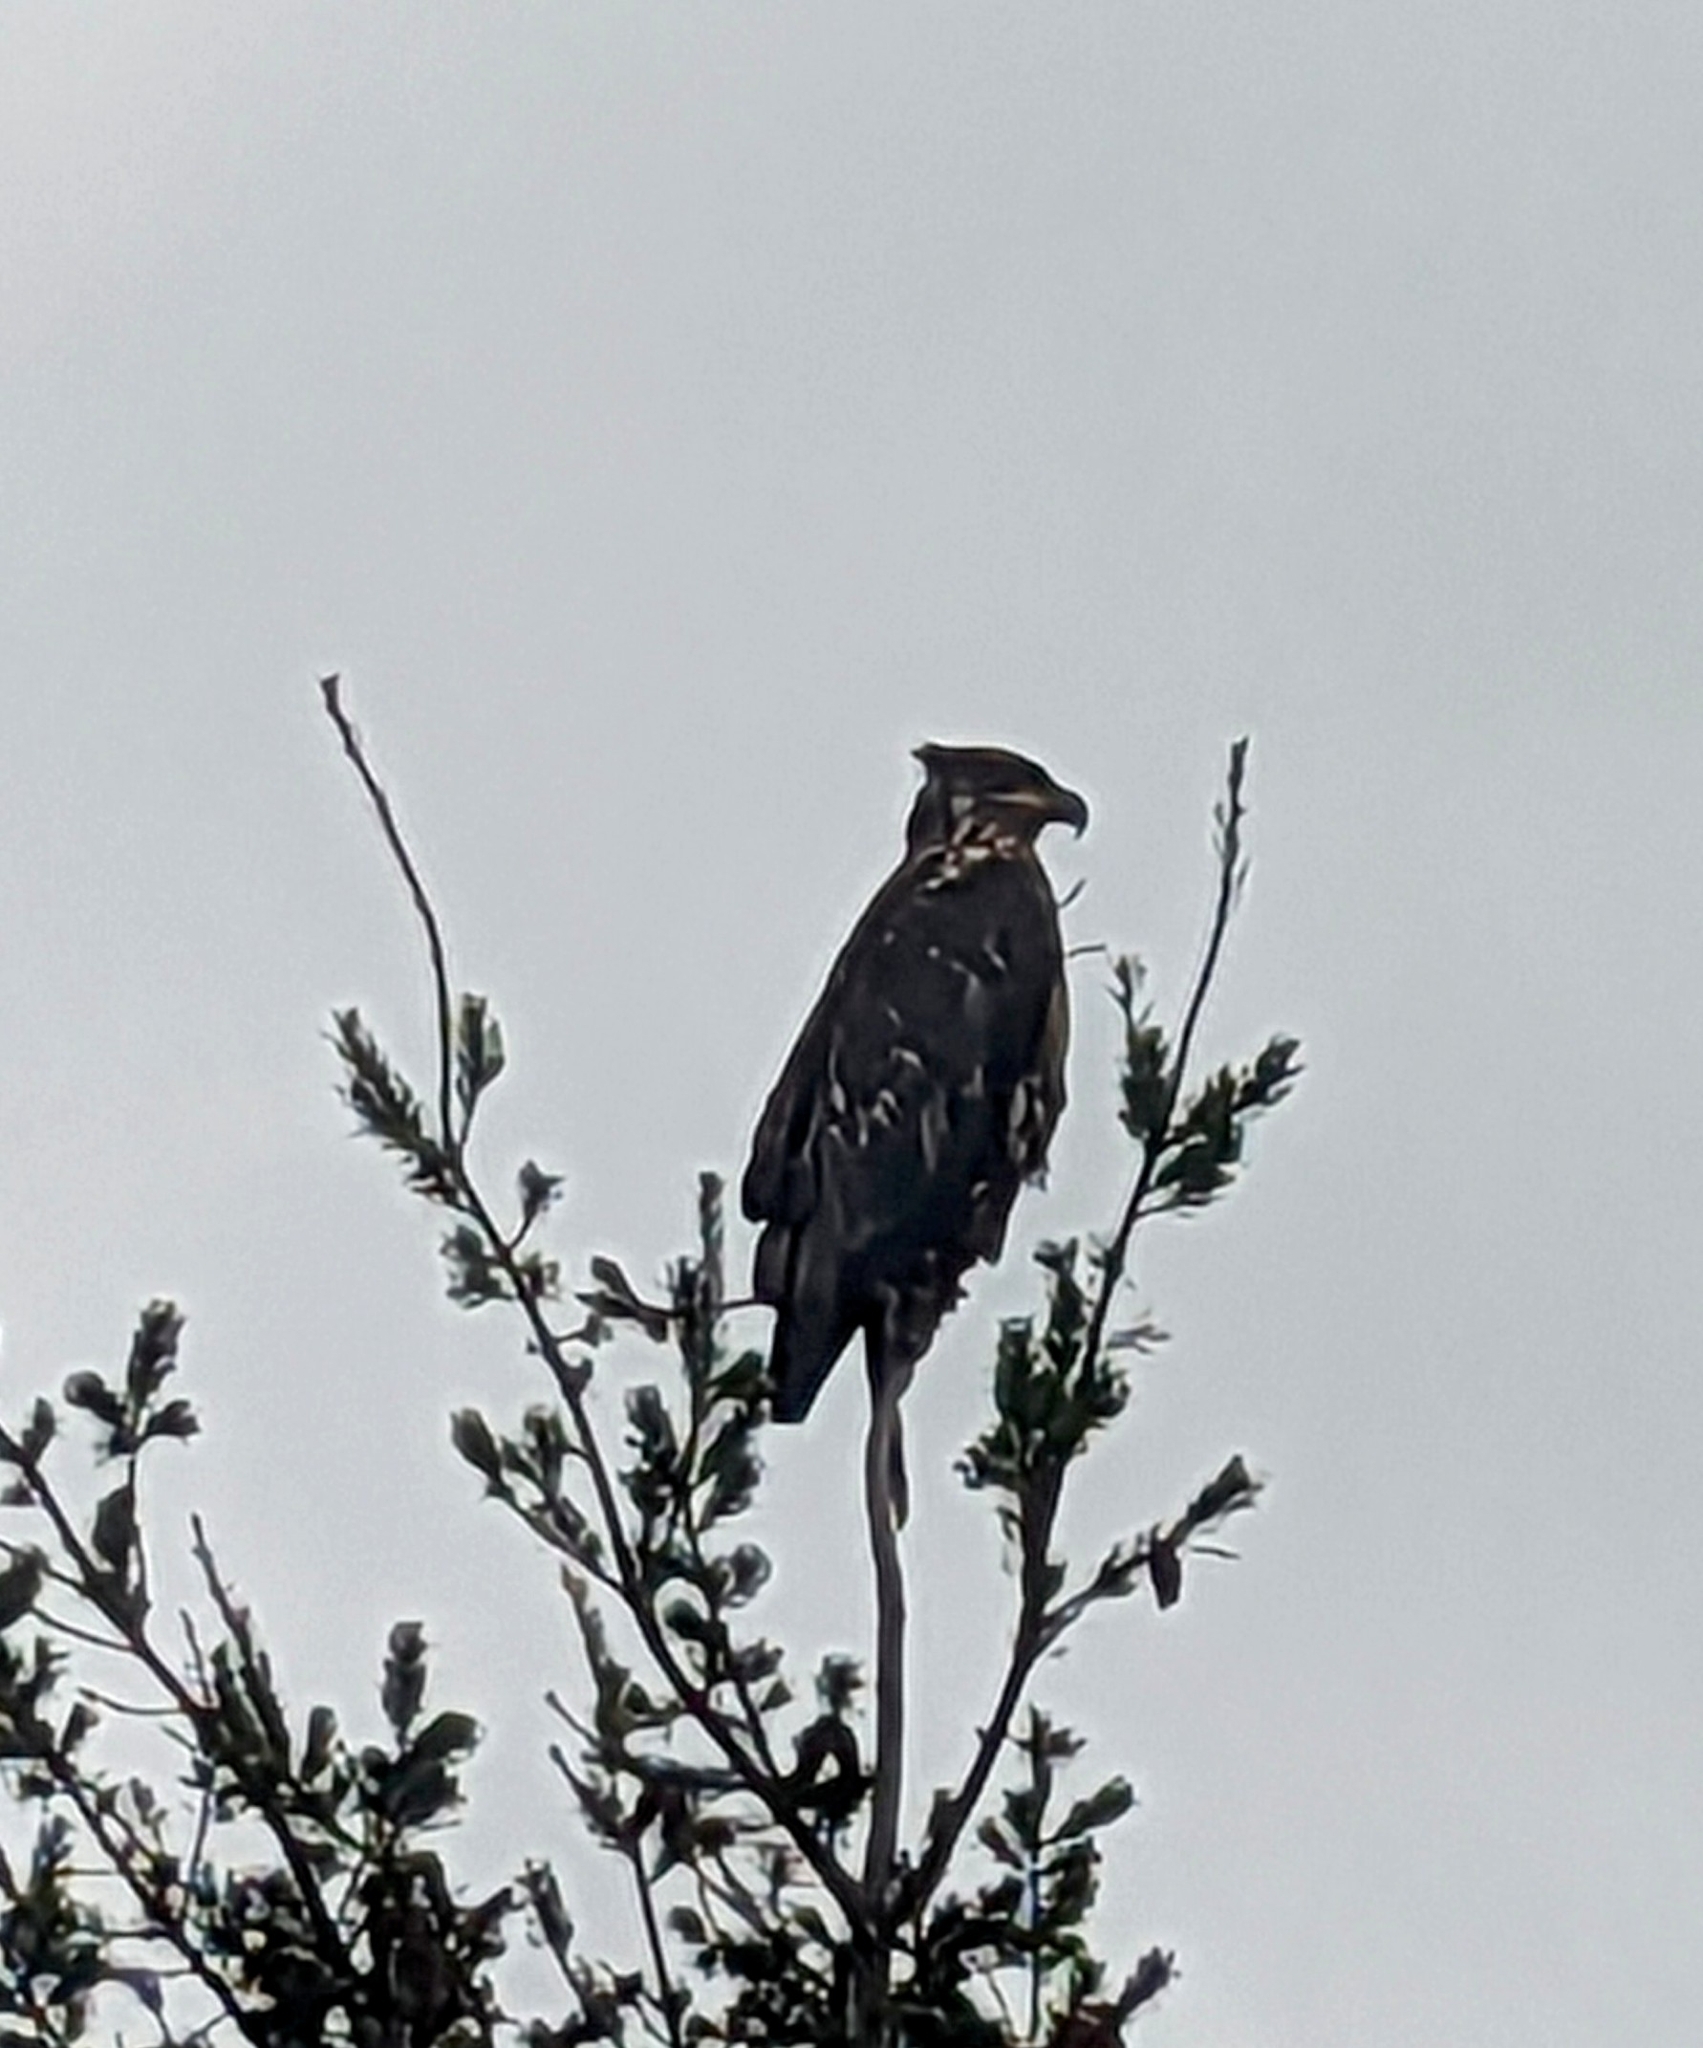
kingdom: Animalia
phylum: Chordata
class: Aves
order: Accipitriformes
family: Accipitridae
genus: Haliaeetus
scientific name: Haliaeetus leucocephalus
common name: Bald eagle
